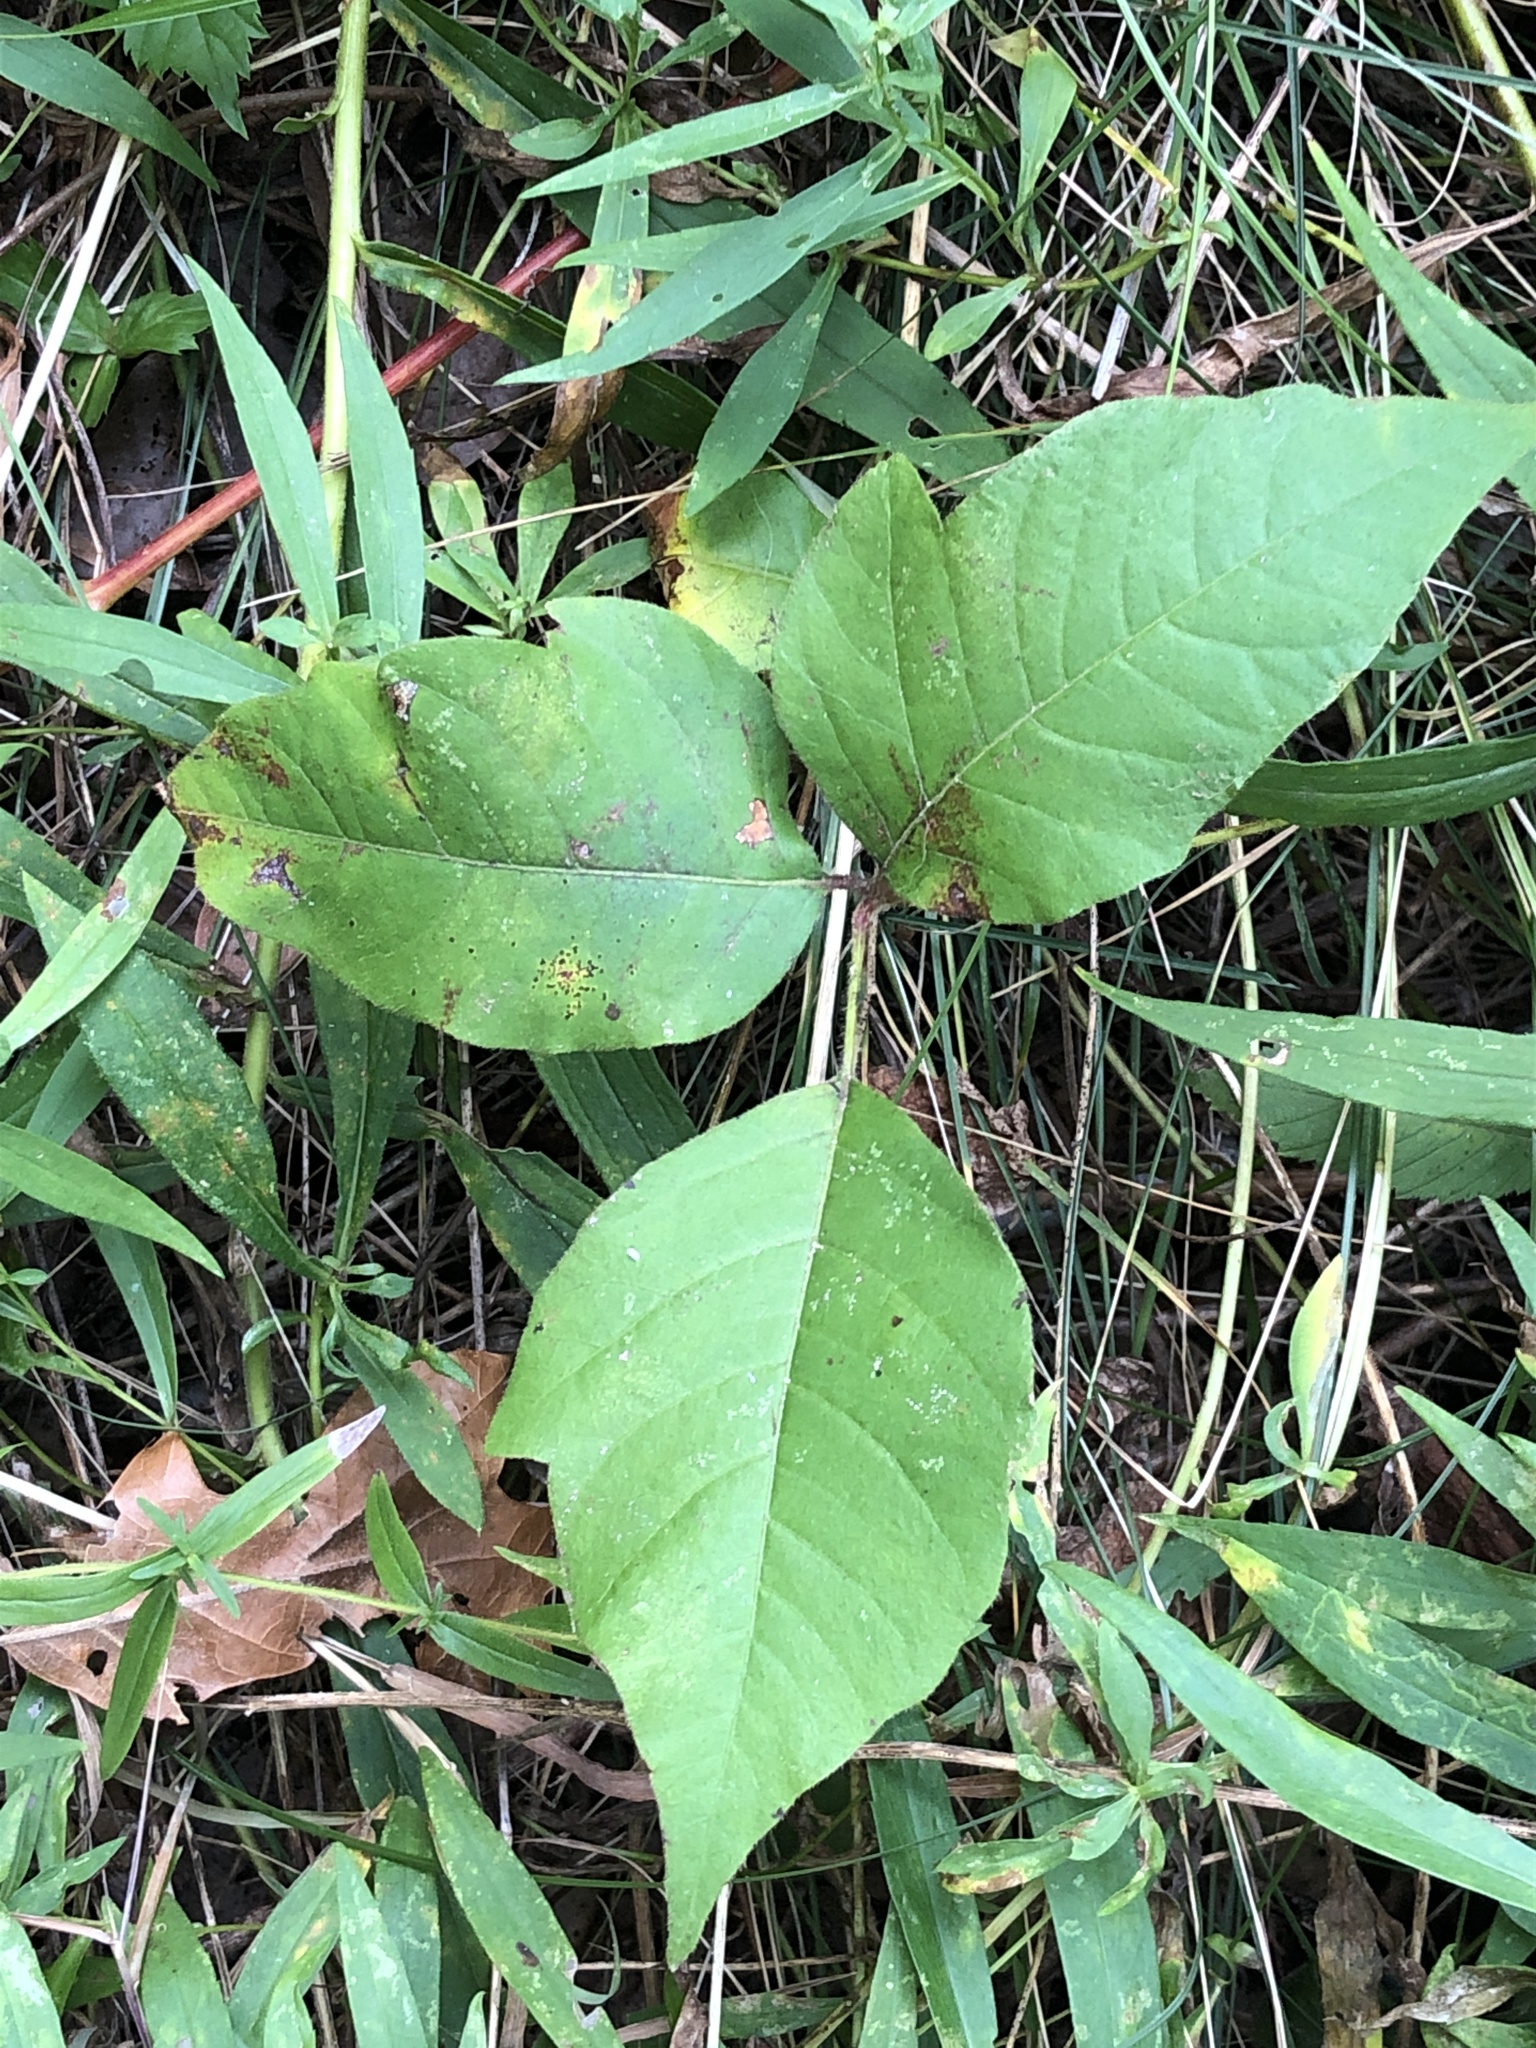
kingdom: Plantae
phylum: Tracheophyta
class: Magnoliopsida
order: Sapindales
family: Anacardiaceae
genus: Toxicodendron
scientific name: Toxicodendron radicans
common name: Poison ivy
